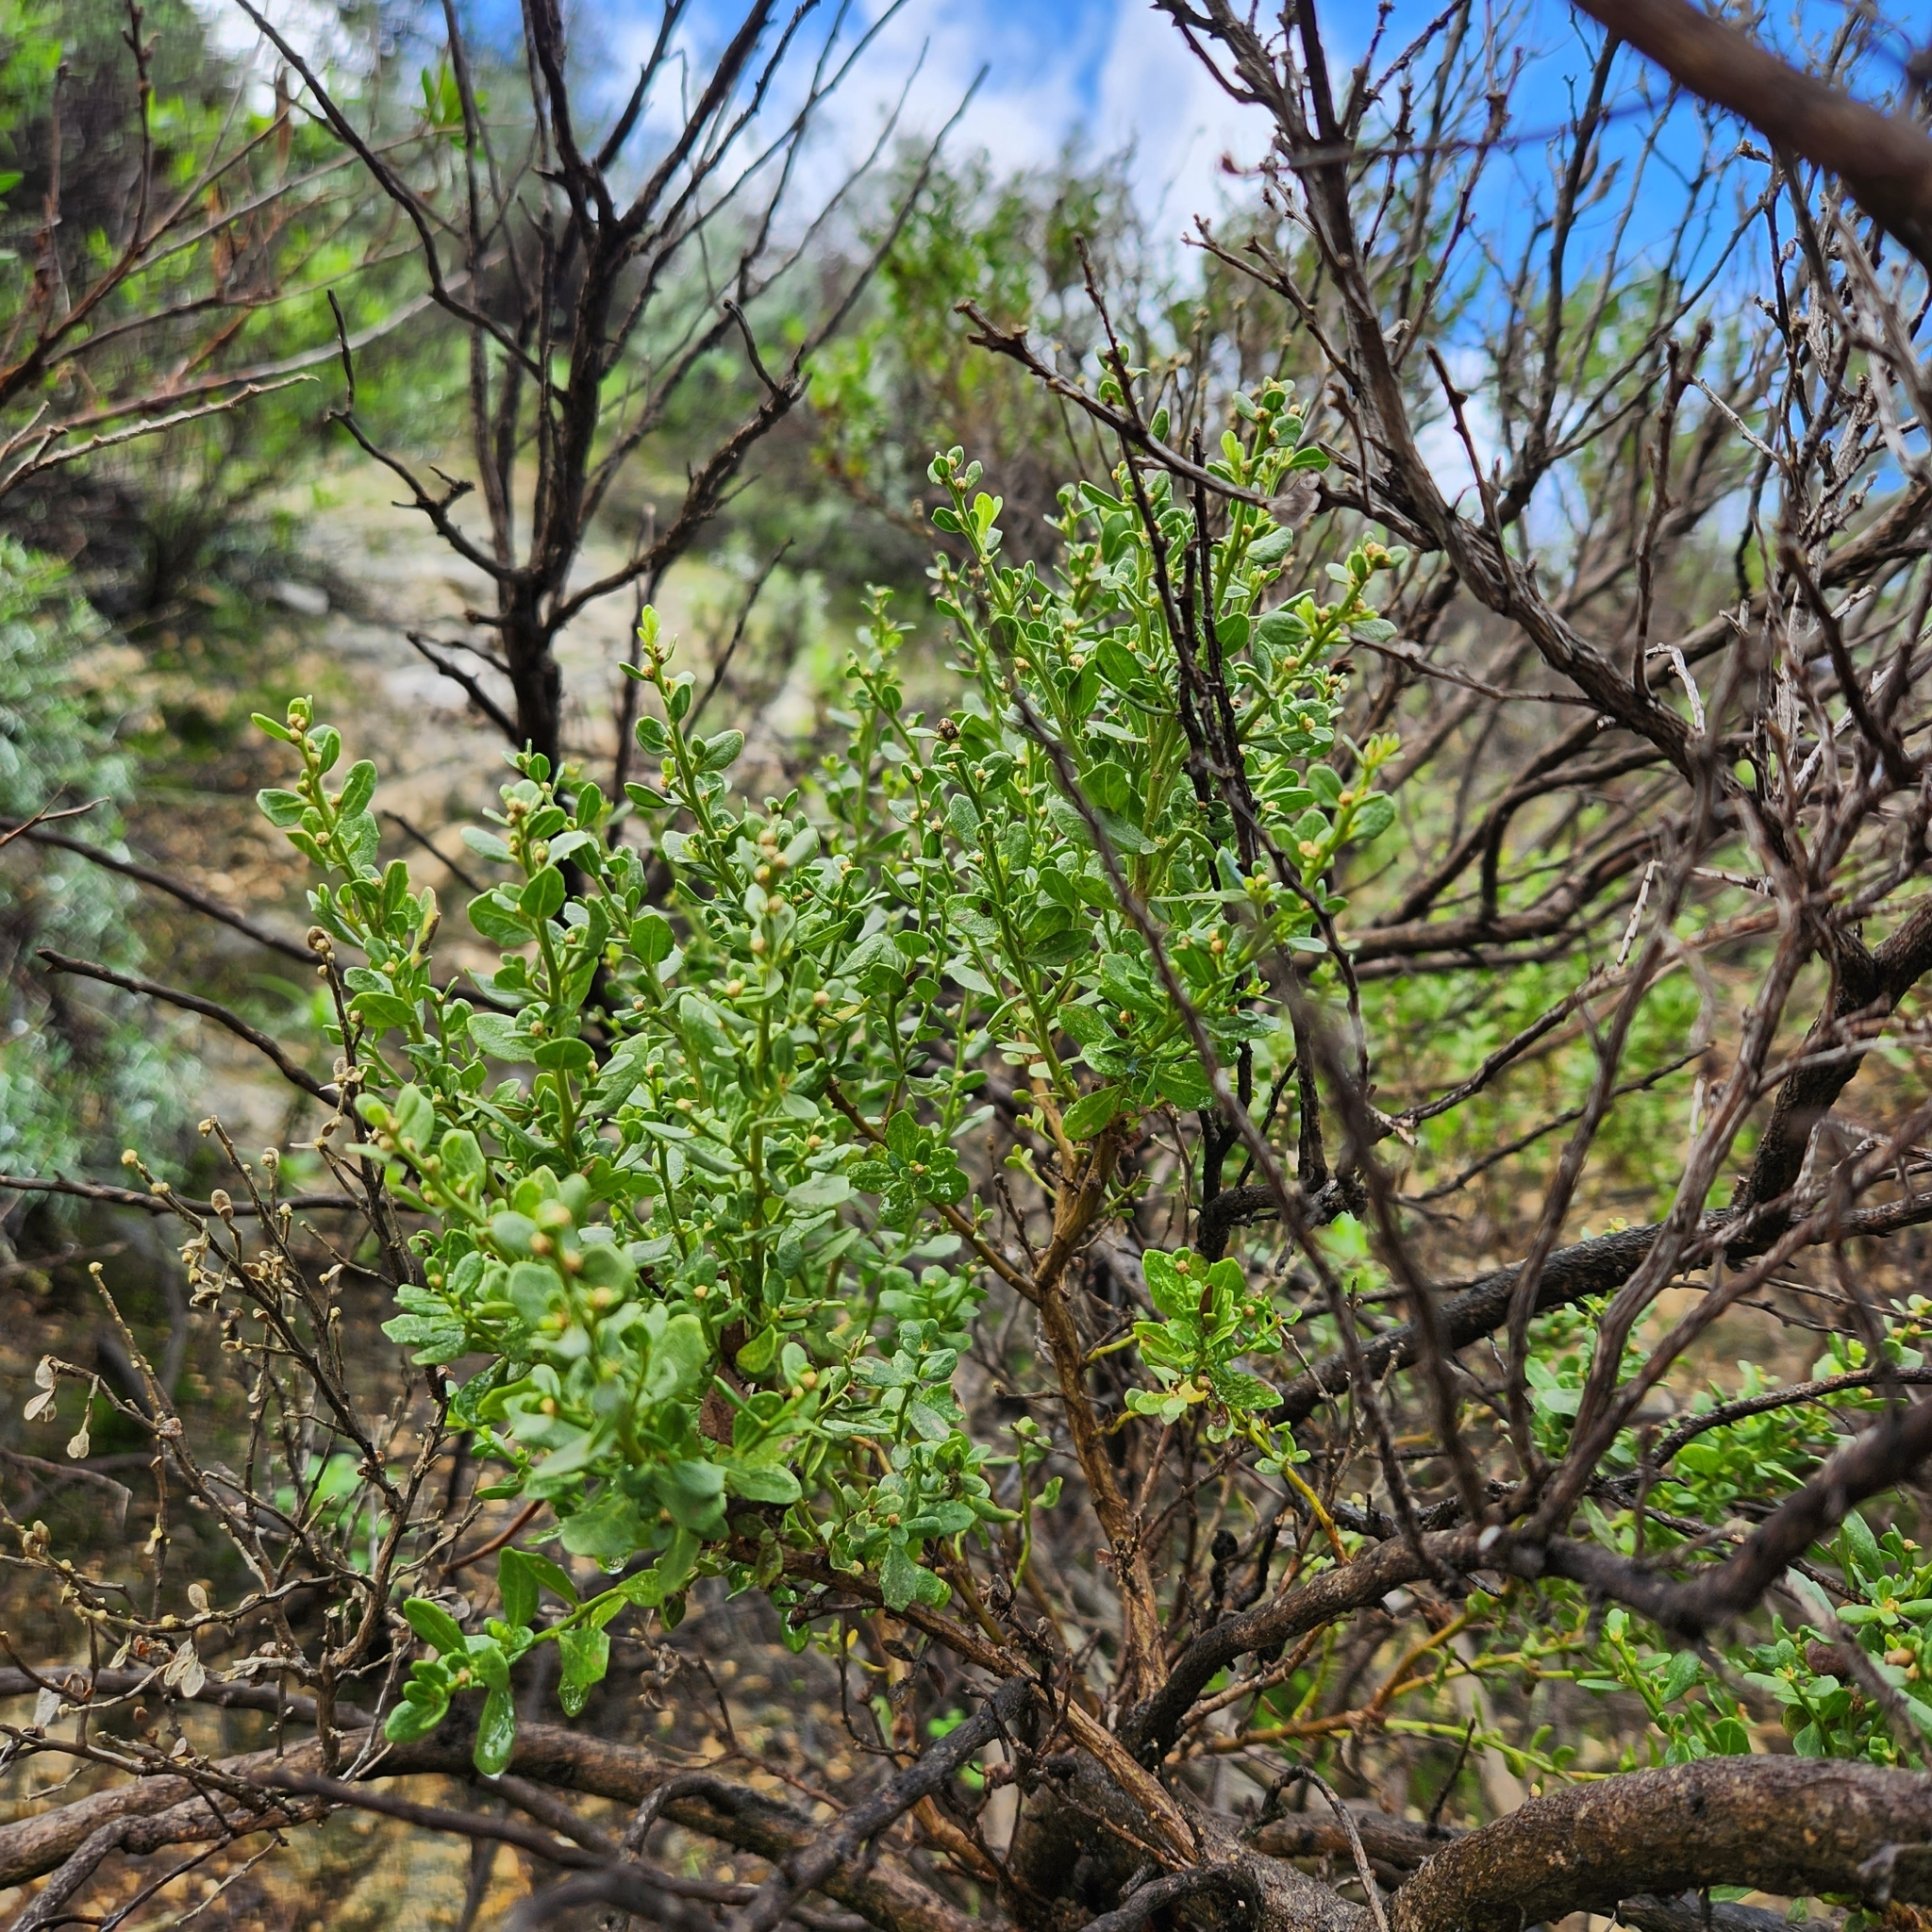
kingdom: Plantae
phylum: Tracheophyta
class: Magnoliopsida
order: Asterales
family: Asteraceae
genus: Baccharis
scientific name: Baccharis pilularis
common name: Coyotebrush
